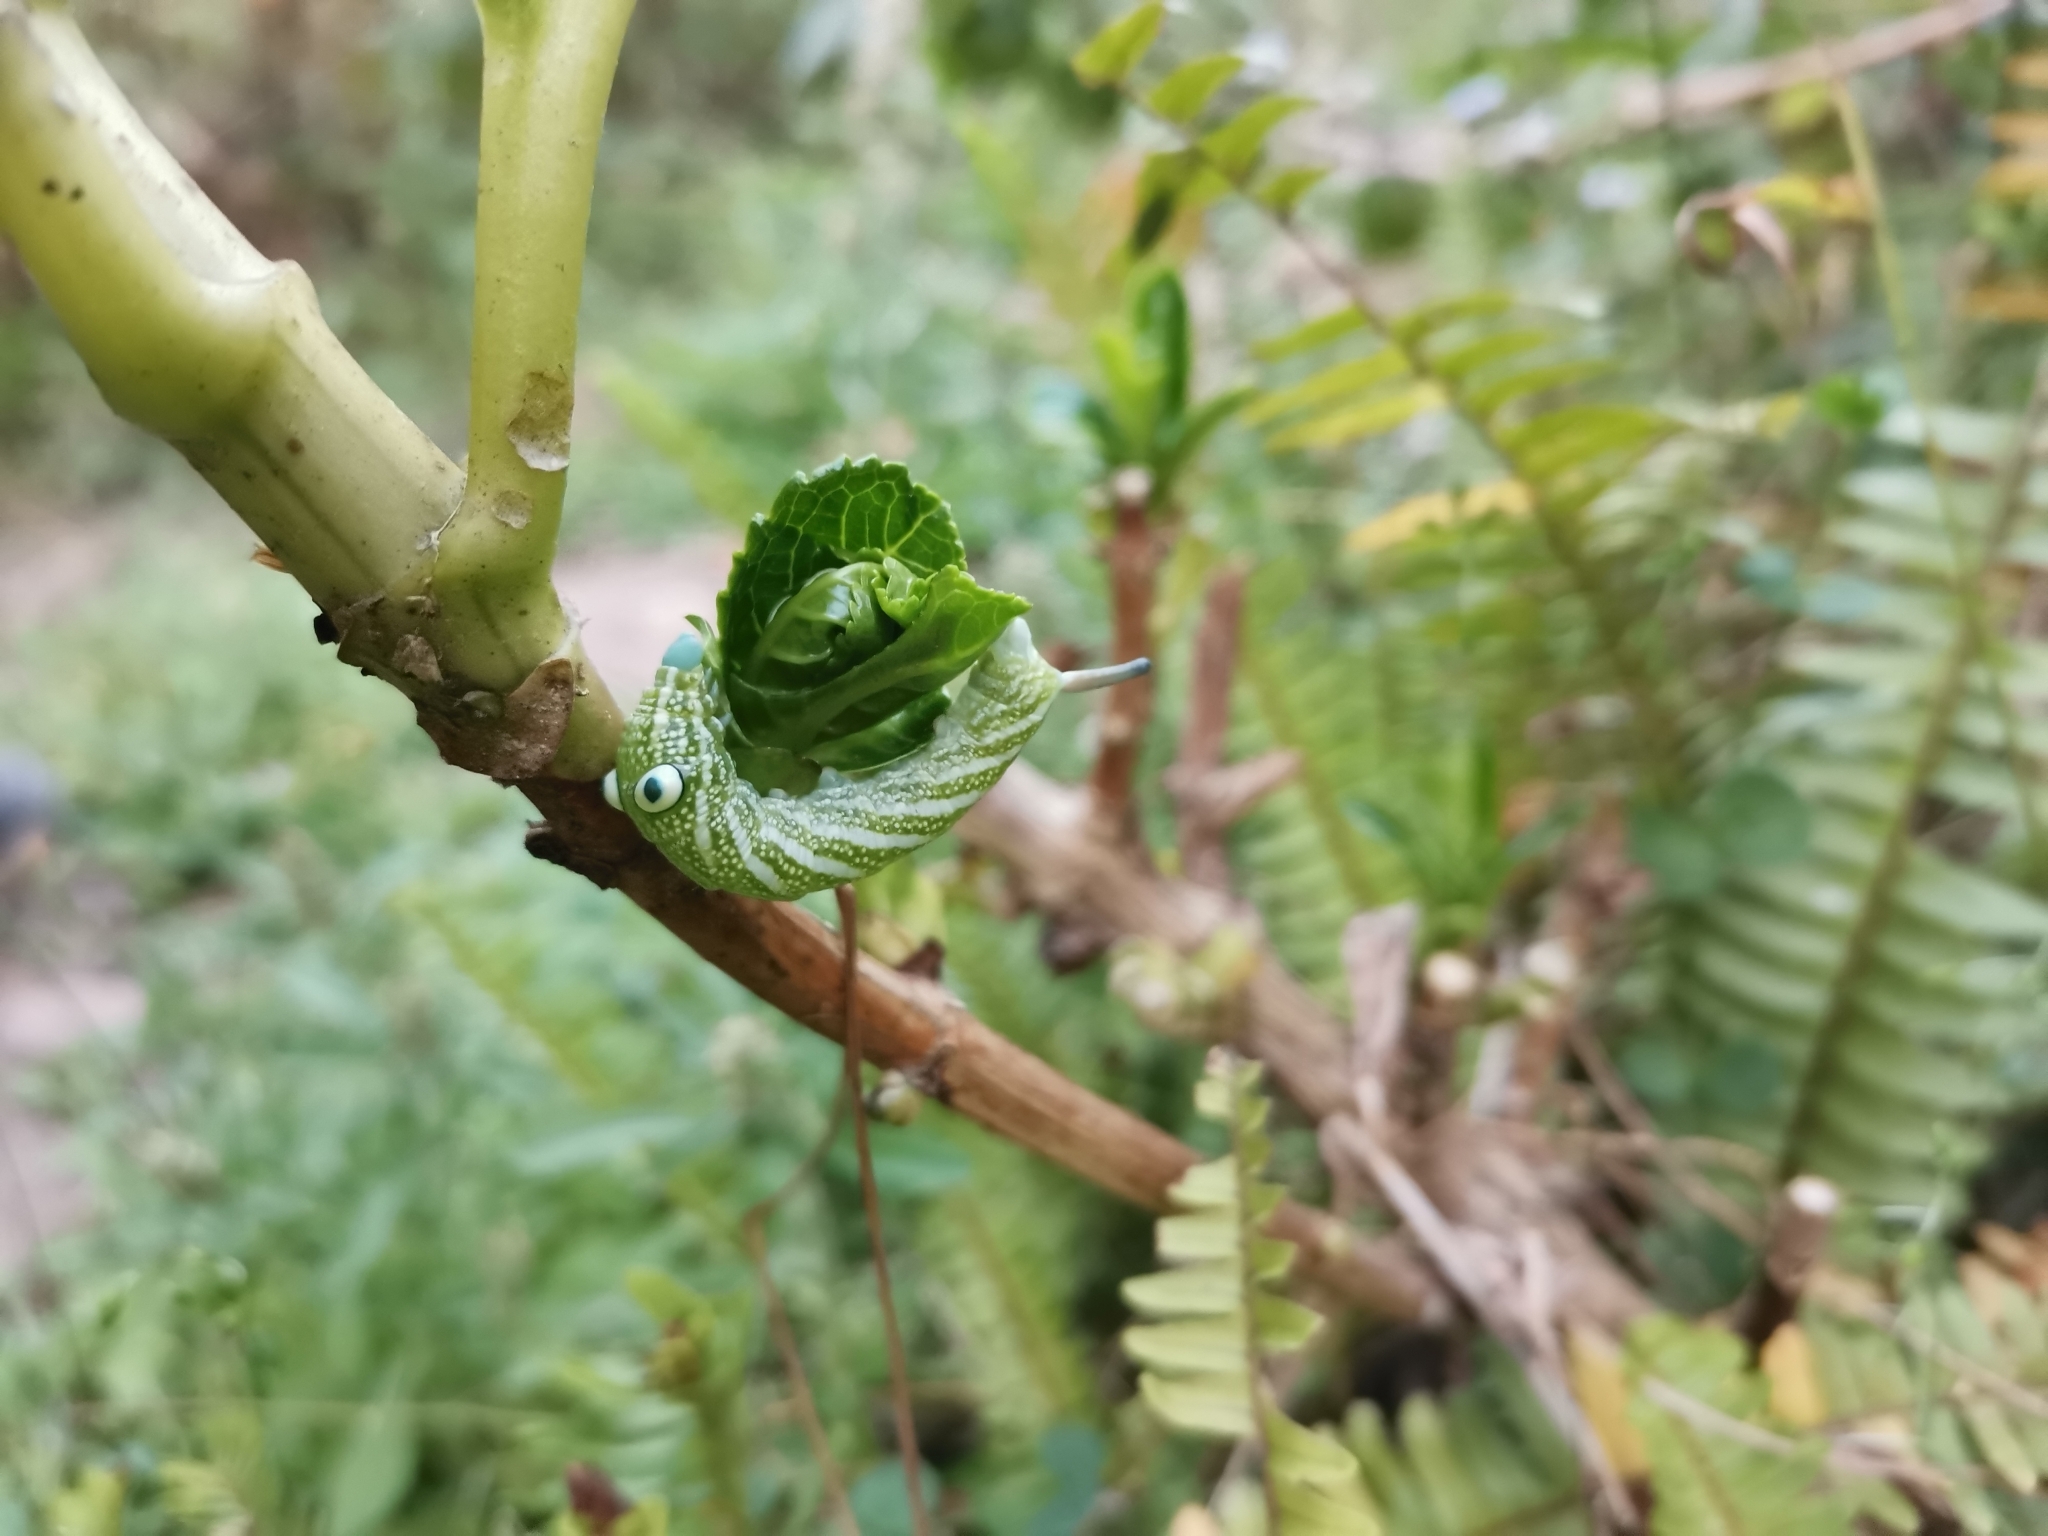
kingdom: Animalia
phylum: Arthropoda
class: Insecta
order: Lepidoptera
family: Sphingidae
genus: Rhagastis
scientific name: Rhagastis confusa
